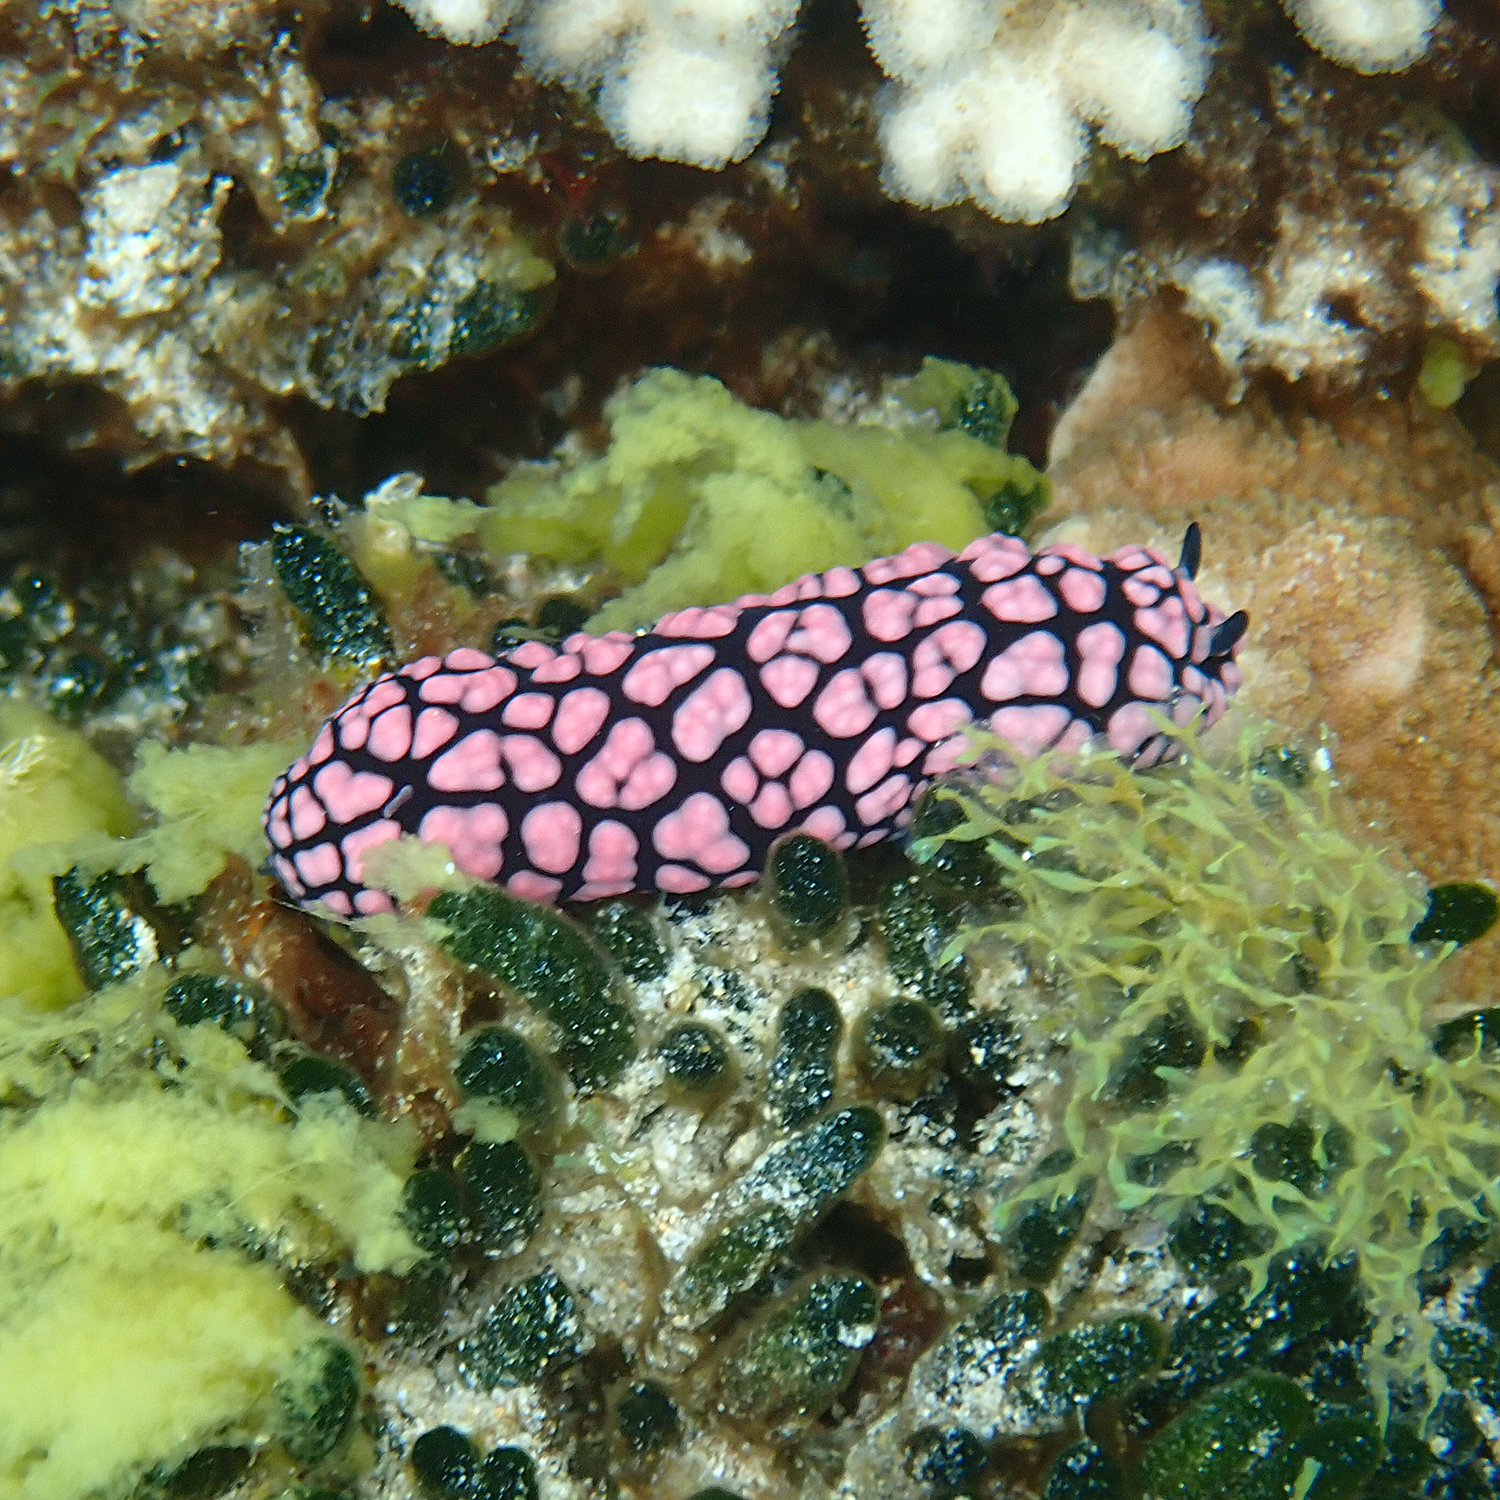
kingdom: Animalia
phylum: Mollusca
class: Gastropoda
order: Nudibranchia
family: Phyllidiidae
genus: Phyllidiella
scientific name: Phyllidiella pustulosa
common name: Pustular phyllidia
